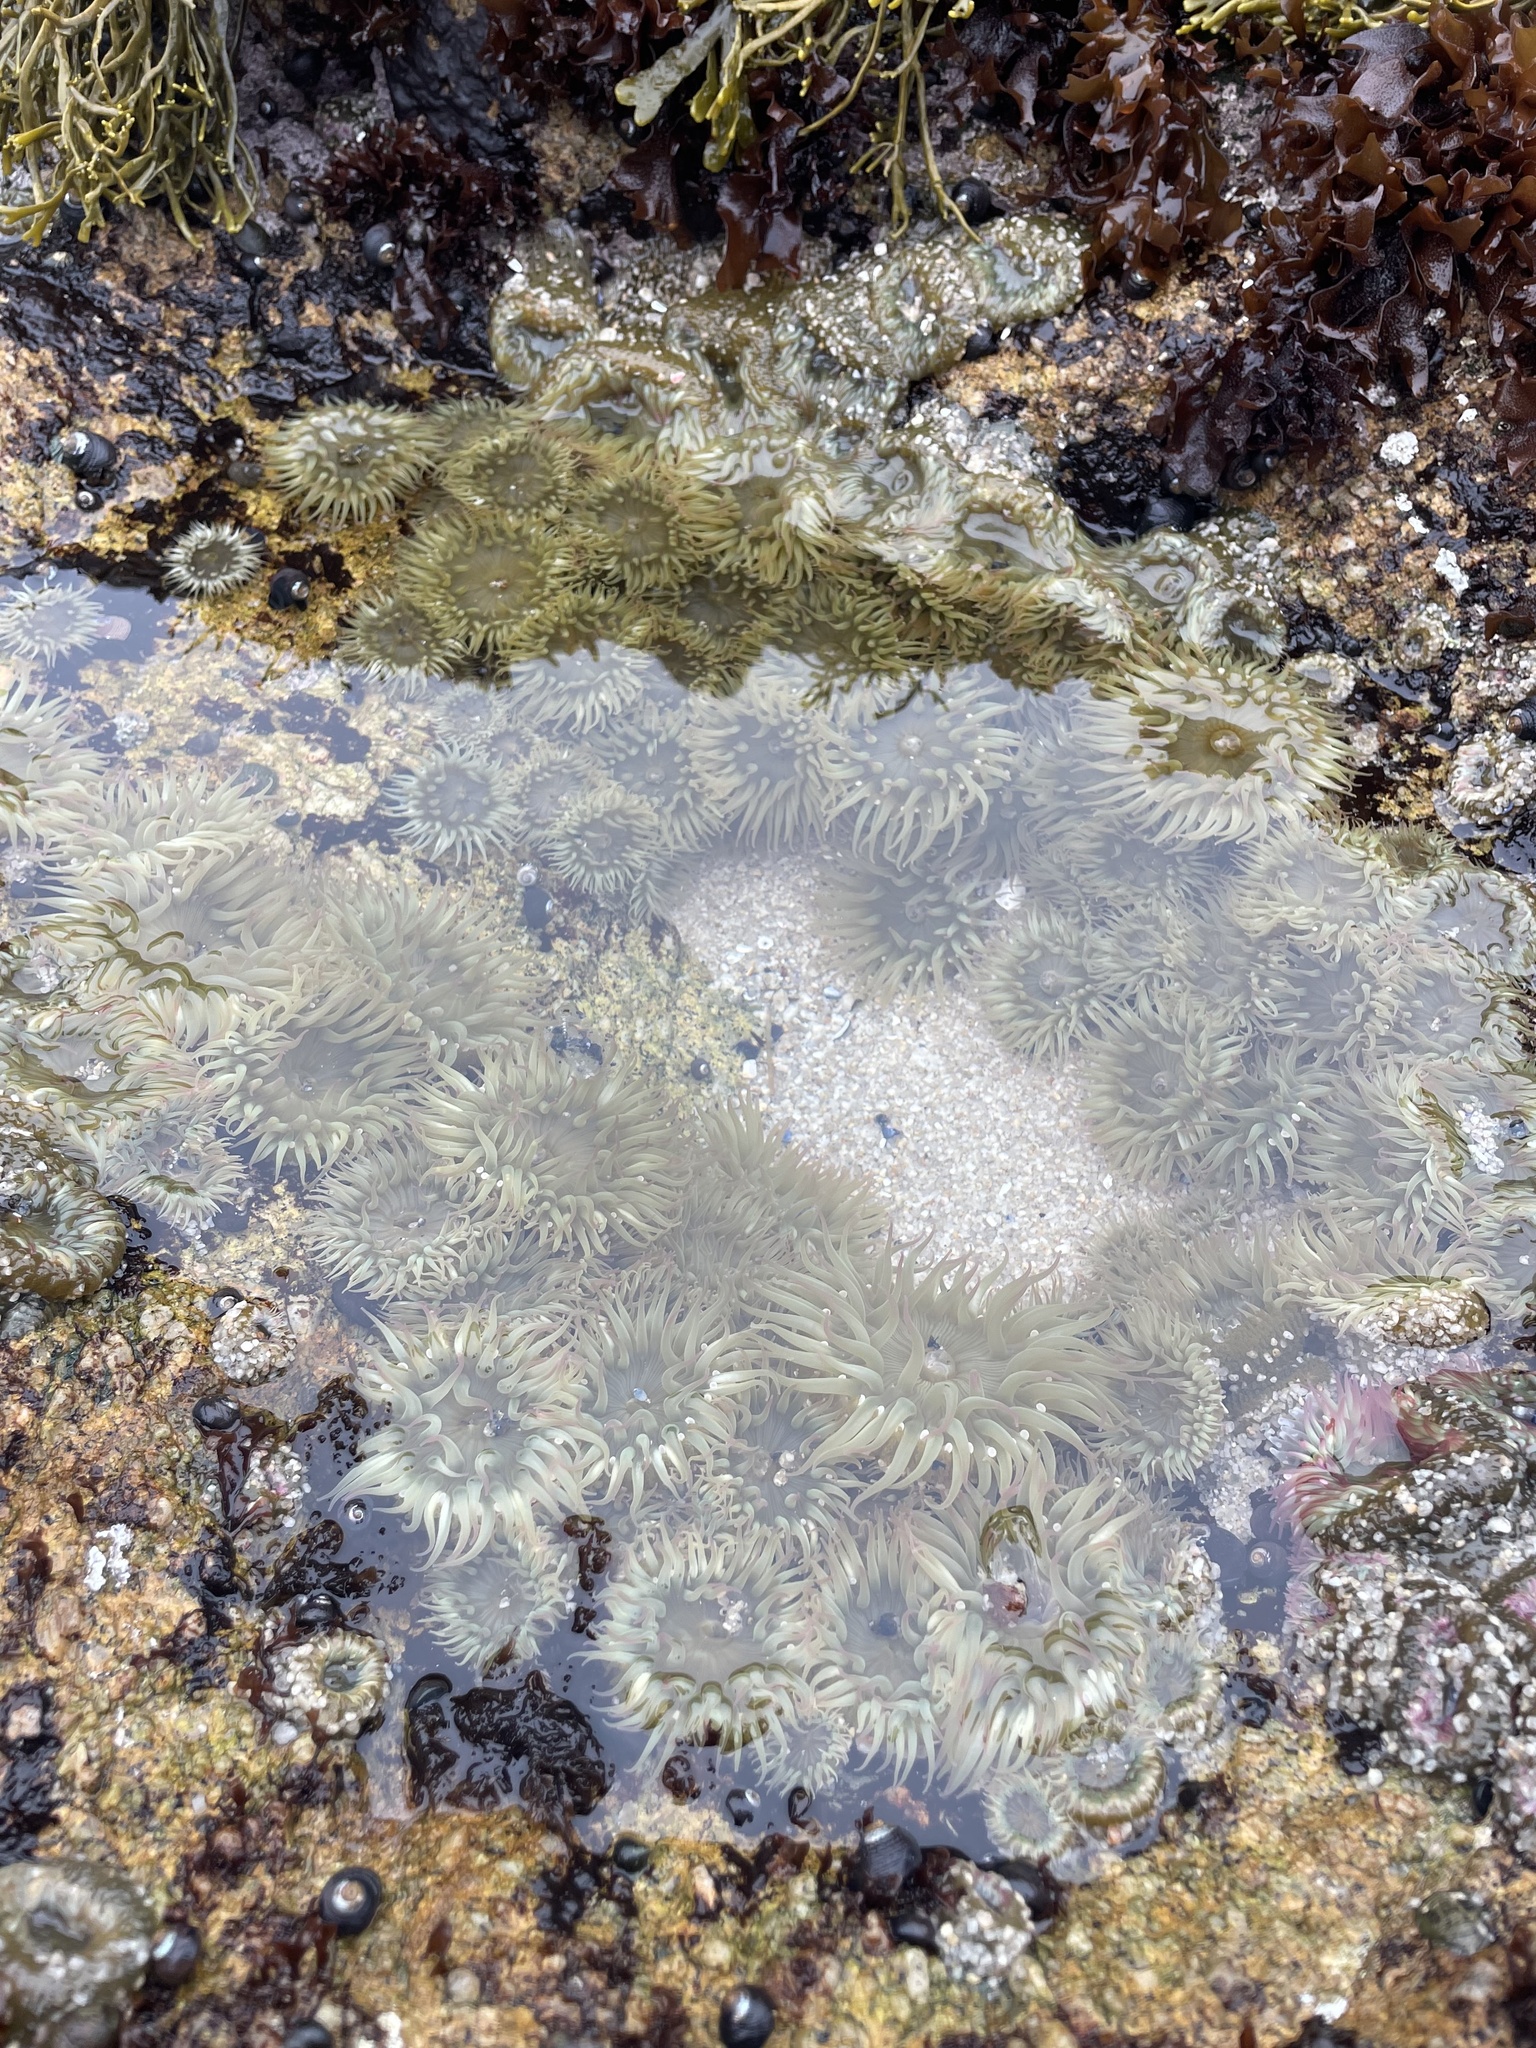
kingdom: Animalia
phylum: Cnidaria
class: Anthozoa
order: Actiniaria
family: Actiniidae
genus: Anthopleura
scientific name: Anthopleura elegantissima
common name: Clonal anemone
